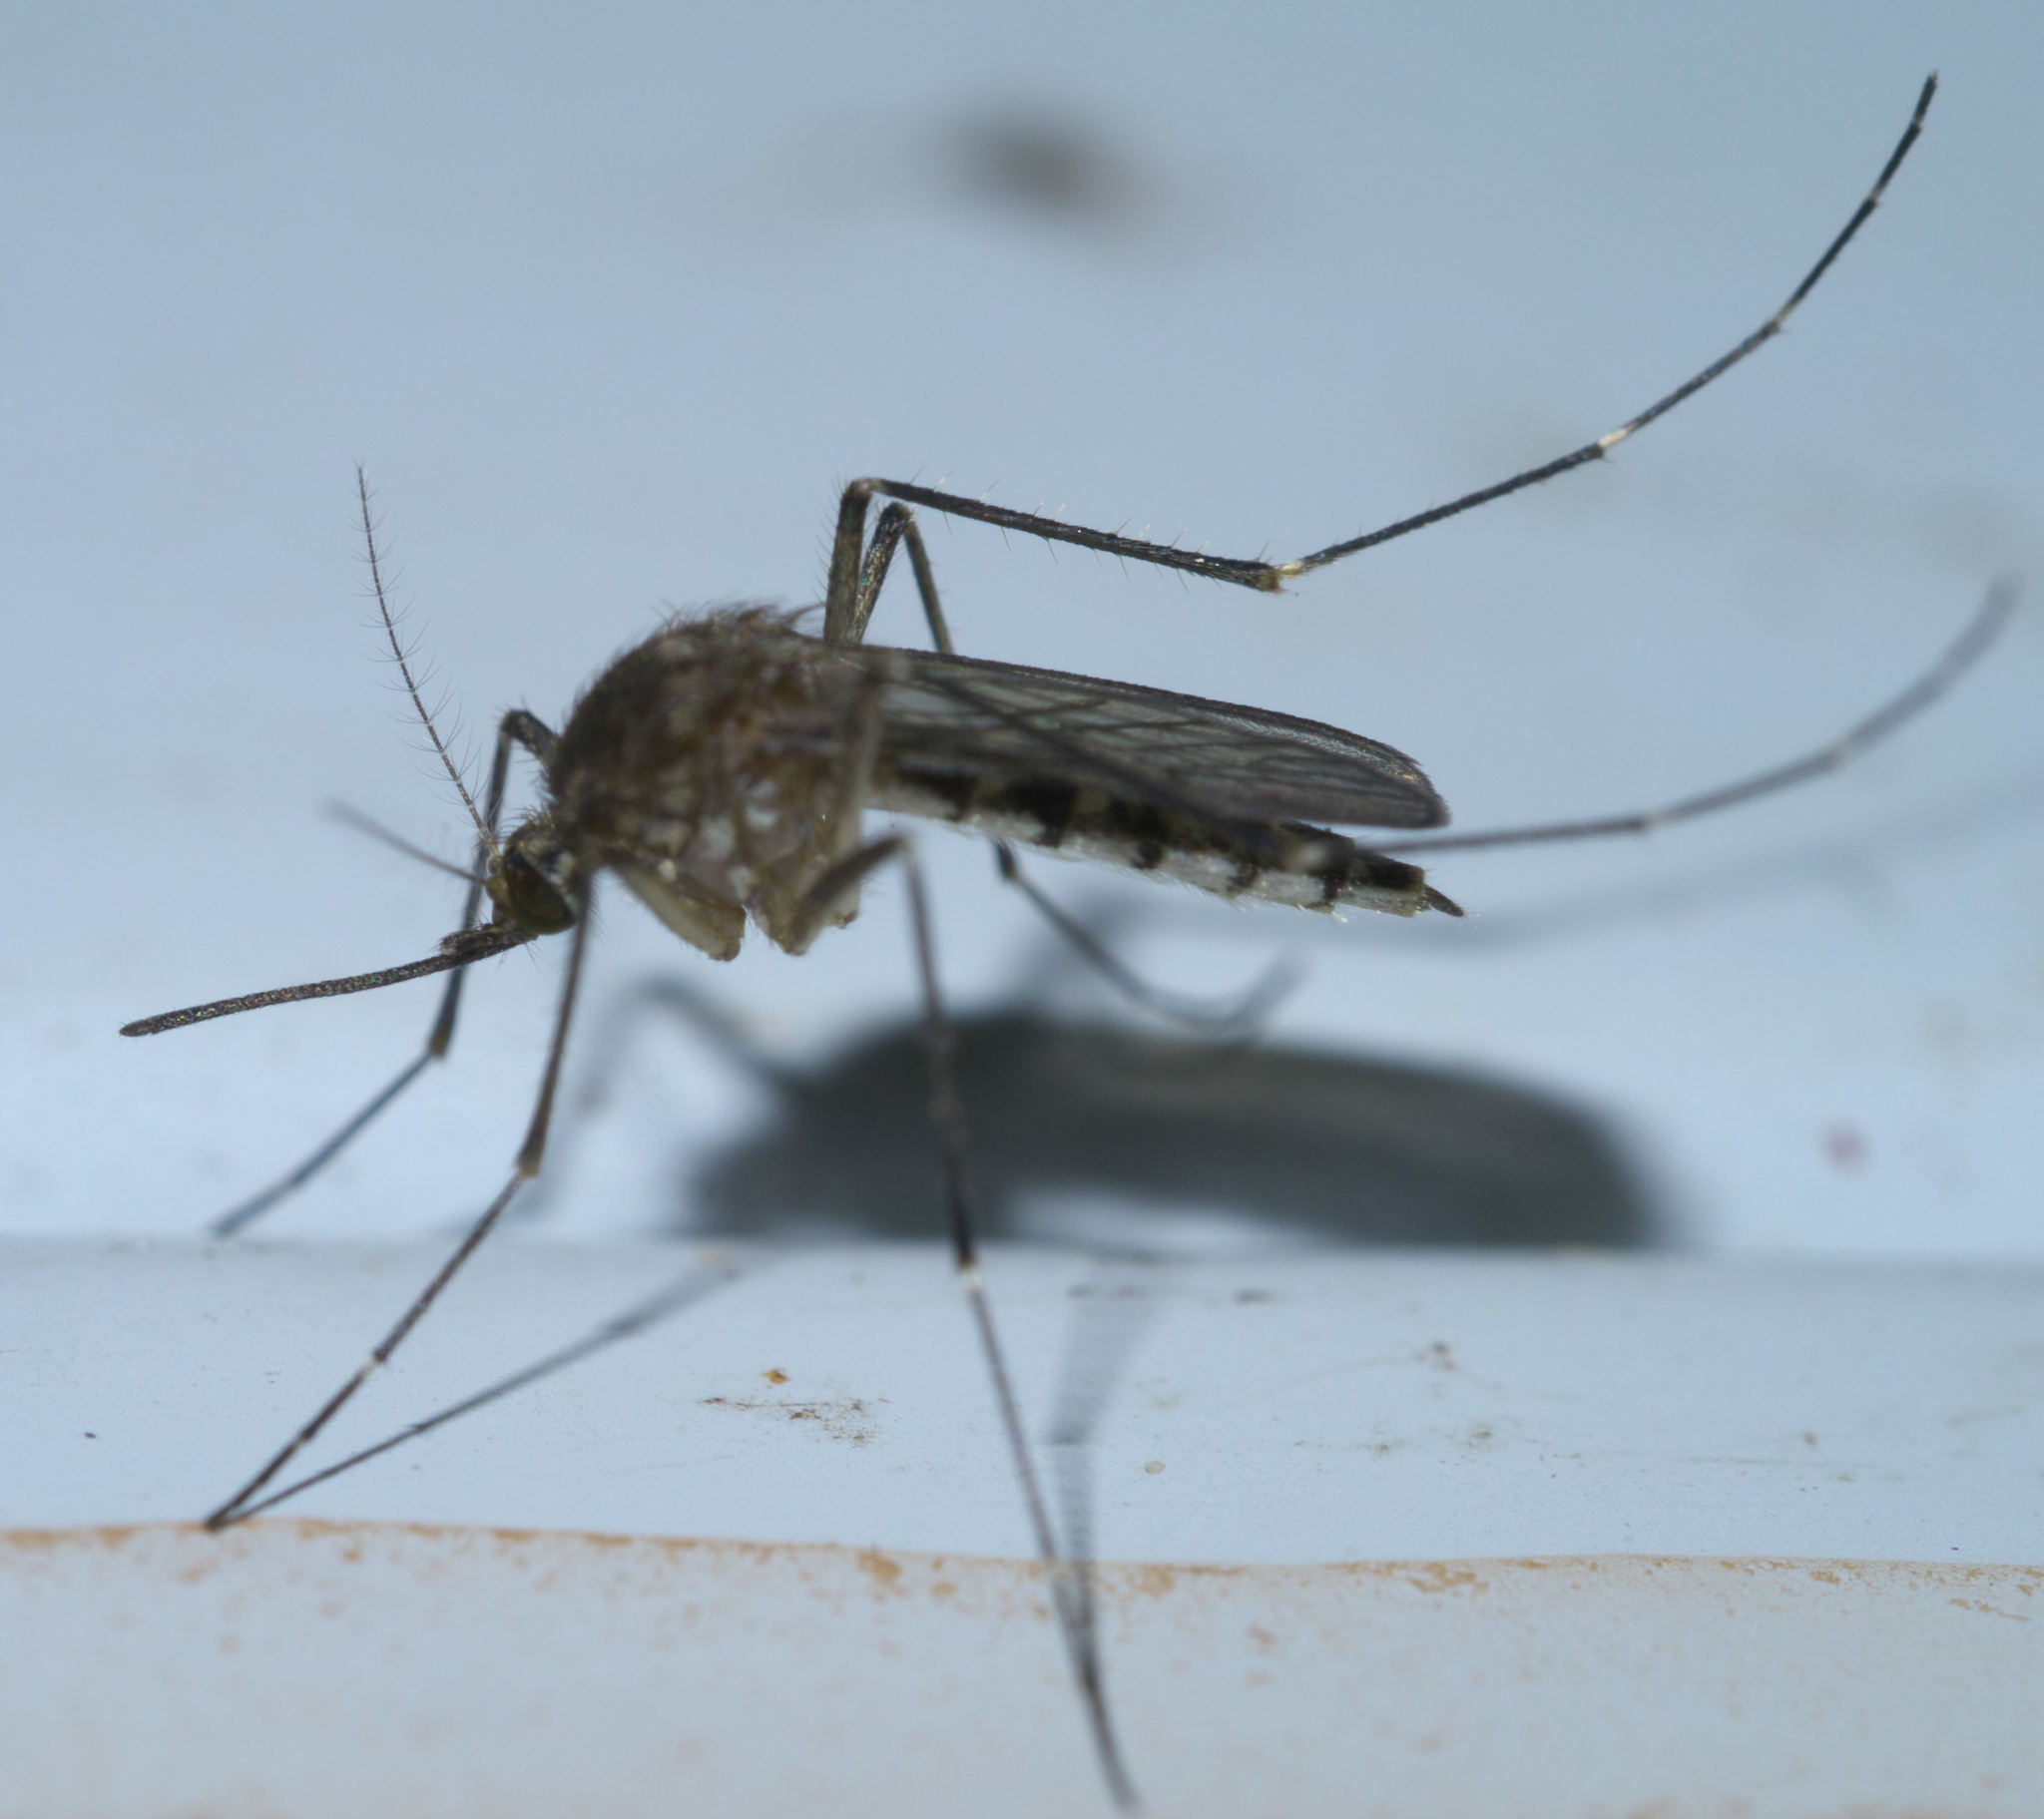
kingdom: Animalia
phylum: Arthropoda
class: Insecta
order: Diptera
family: Culicidae
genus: Aedes
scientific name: Aedes vexans
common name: Inland floodwater mosquito
